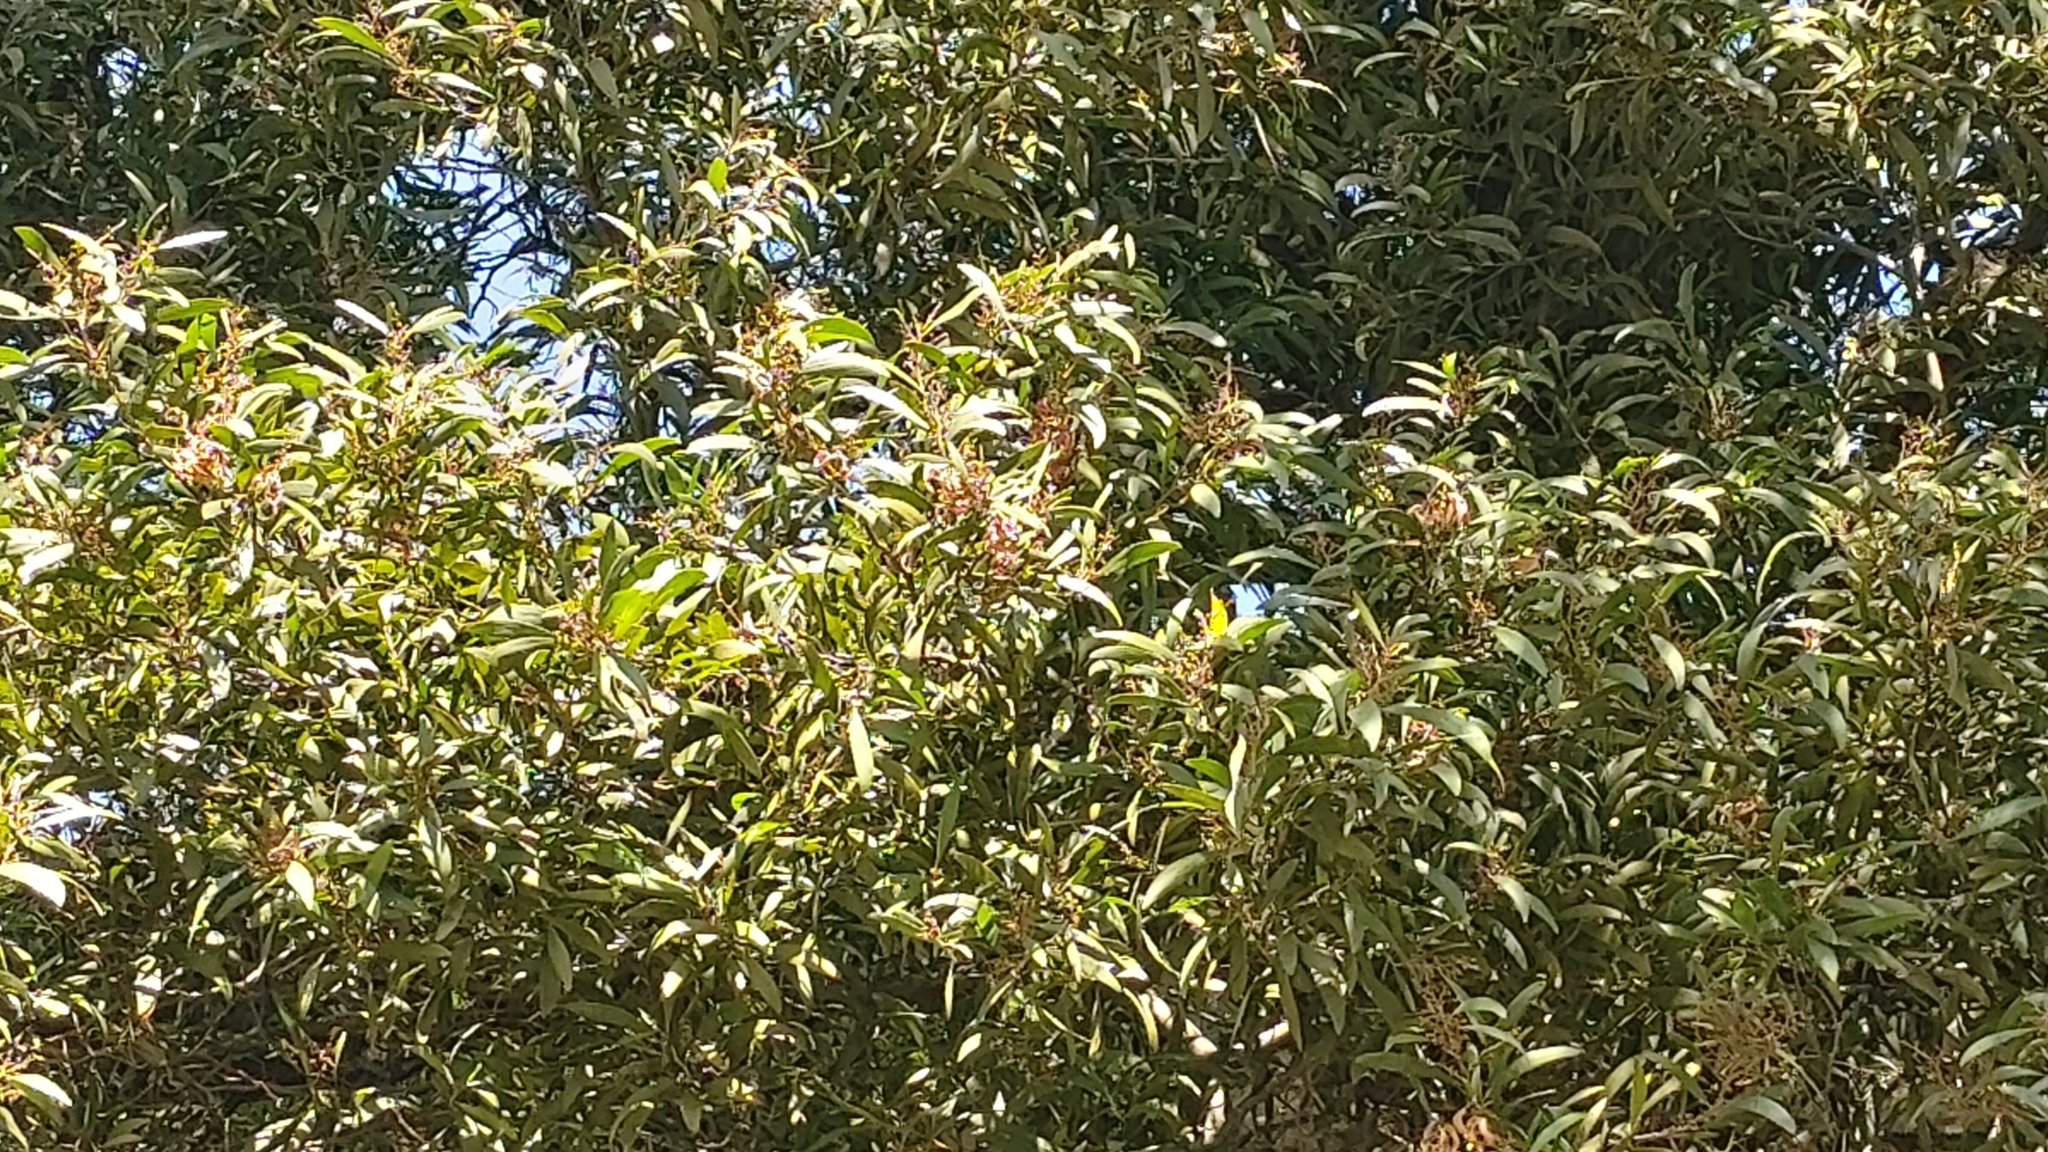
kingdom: Plantae
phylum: Tracheophyta
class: Magnoliopsida
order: Fabales
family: Fabaceae
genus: Acacia
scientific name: Acacia melanoxylon
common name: Blackwood
